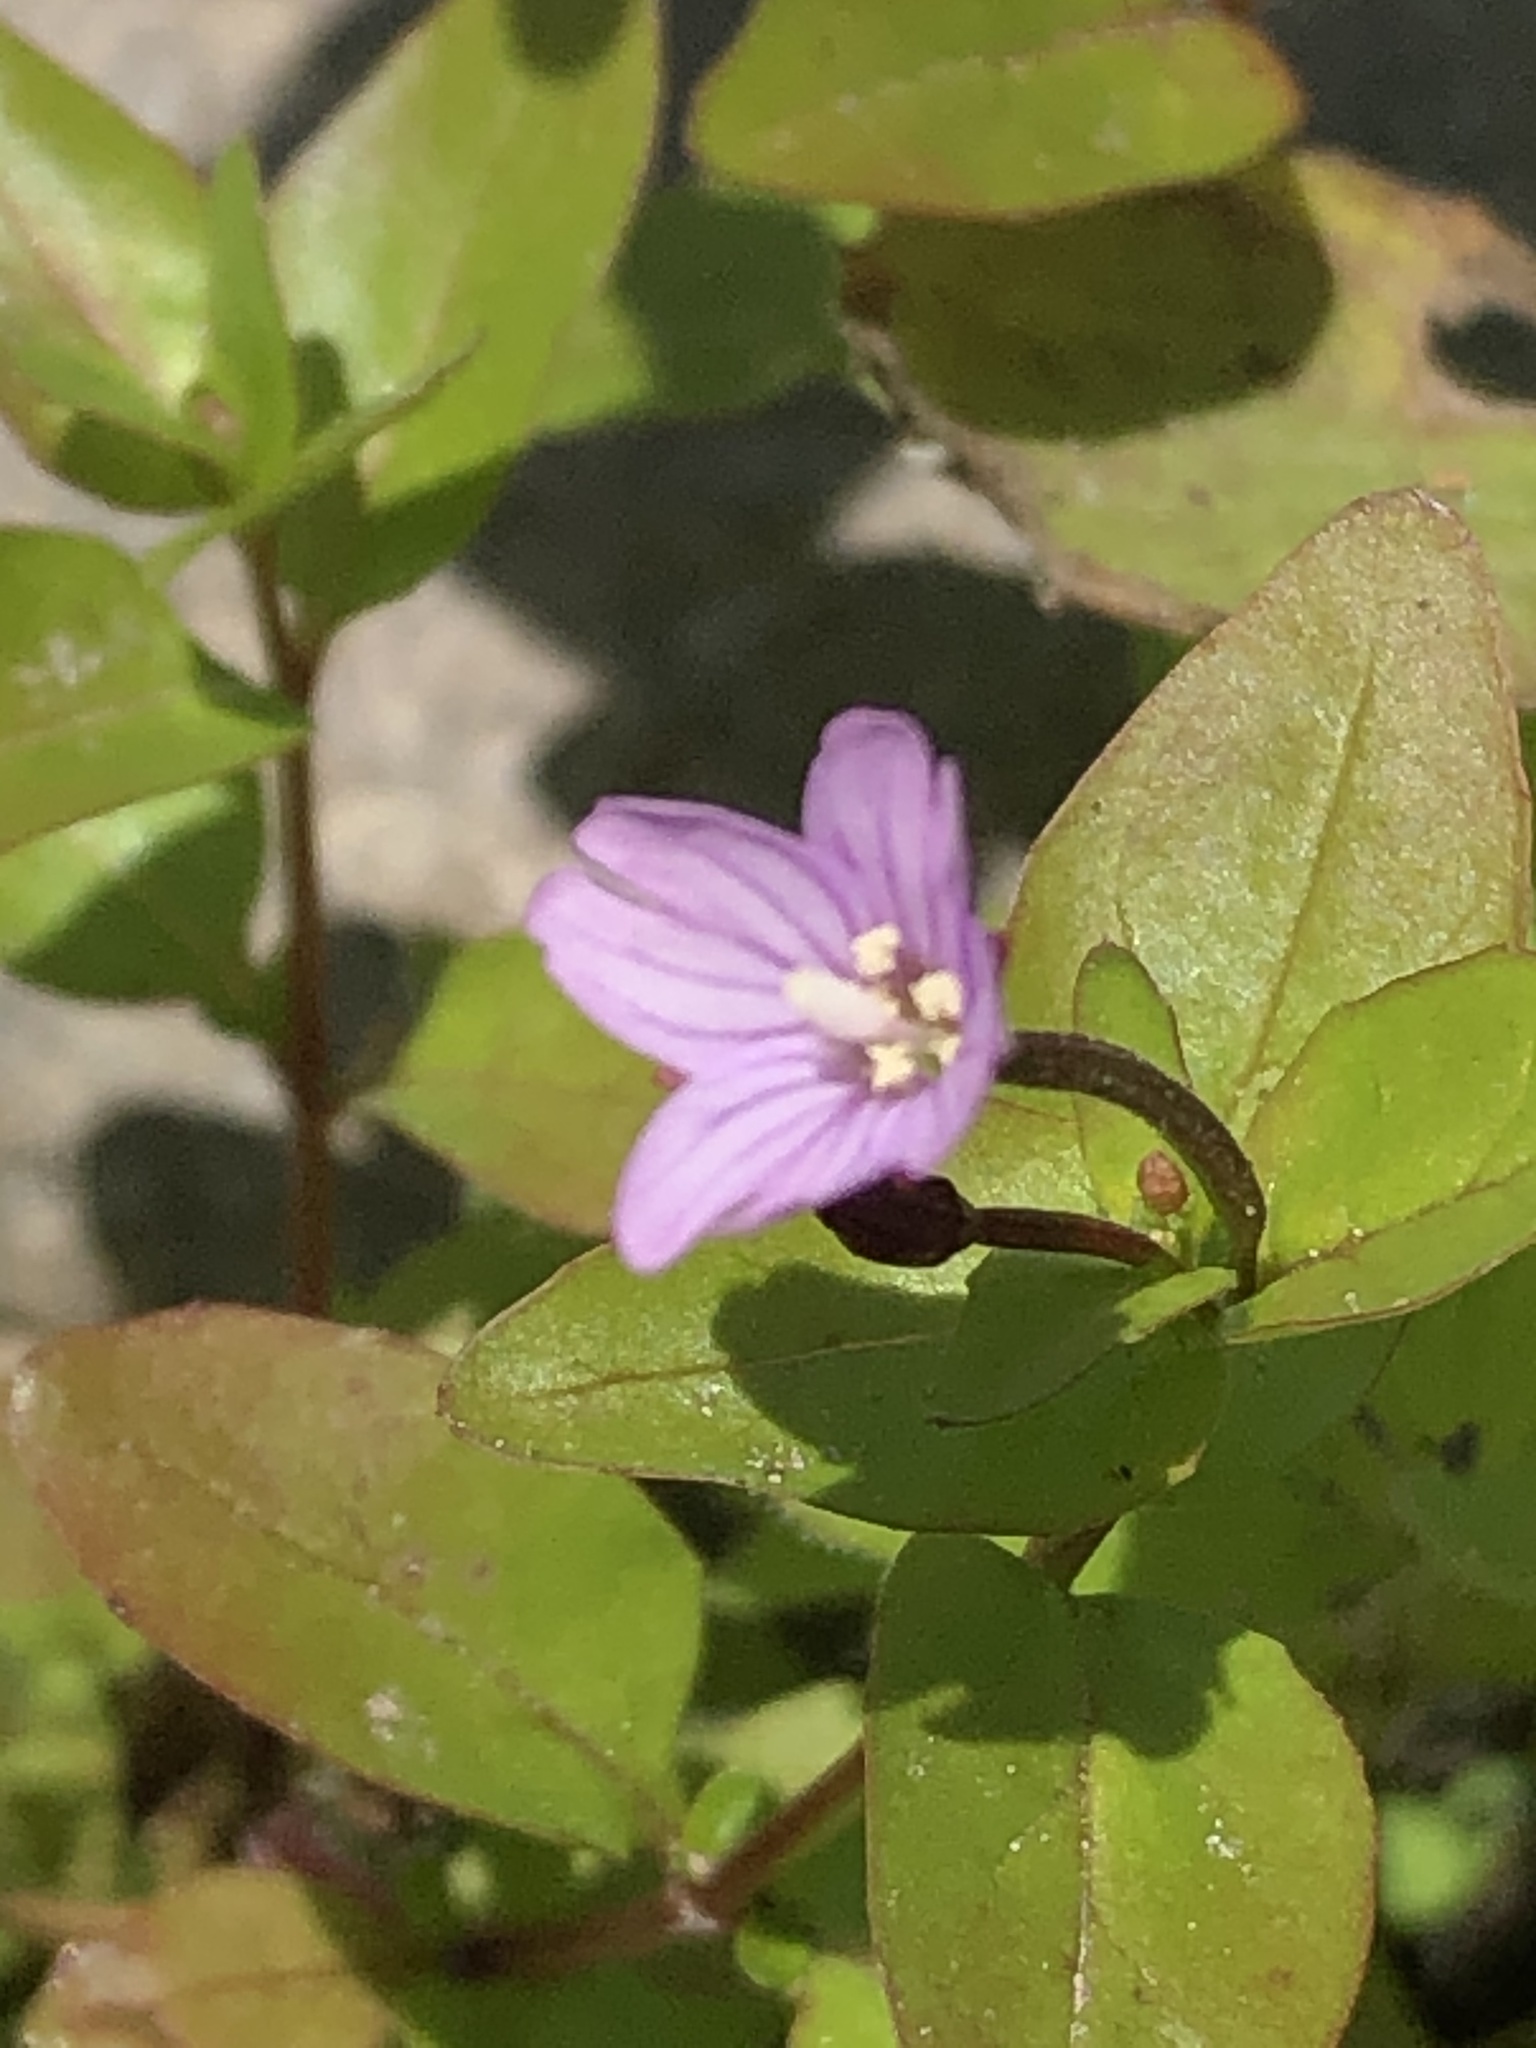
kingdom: Plantae
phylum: Tracheophyta
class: Magnoliopsida
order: Myrtales
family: Onagraceae
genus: Epilobium
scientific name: Epilobium ciliatum
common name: American willowherb
